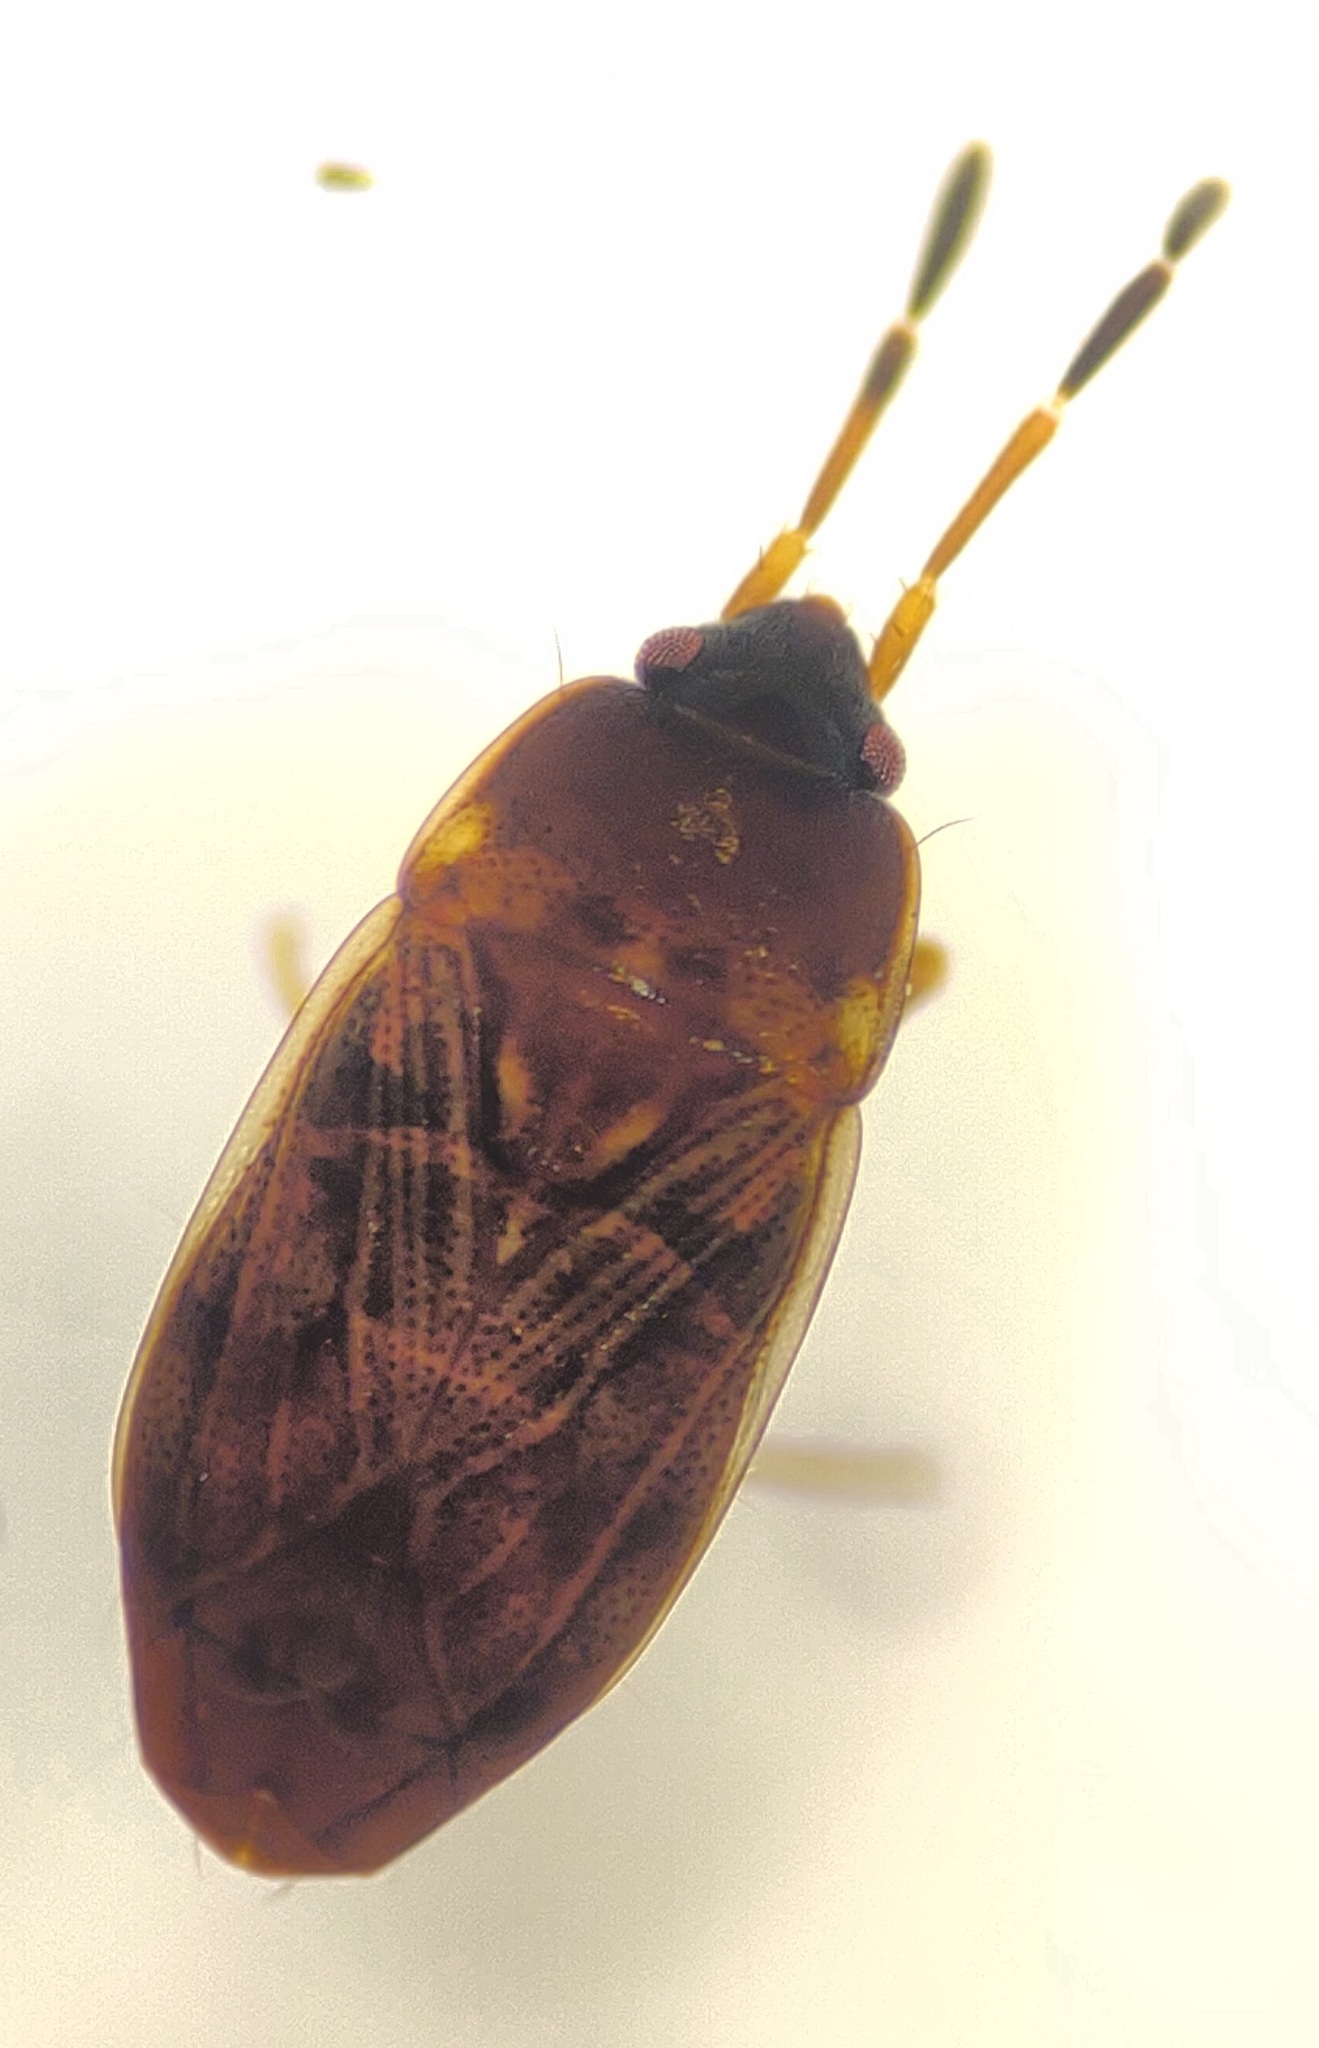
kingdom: Animalia
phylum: Arthropoda
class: Insecta
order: Hemiptera
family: Rhyparochromidae
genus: Cryphula
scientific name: Cryphula trimaculata
